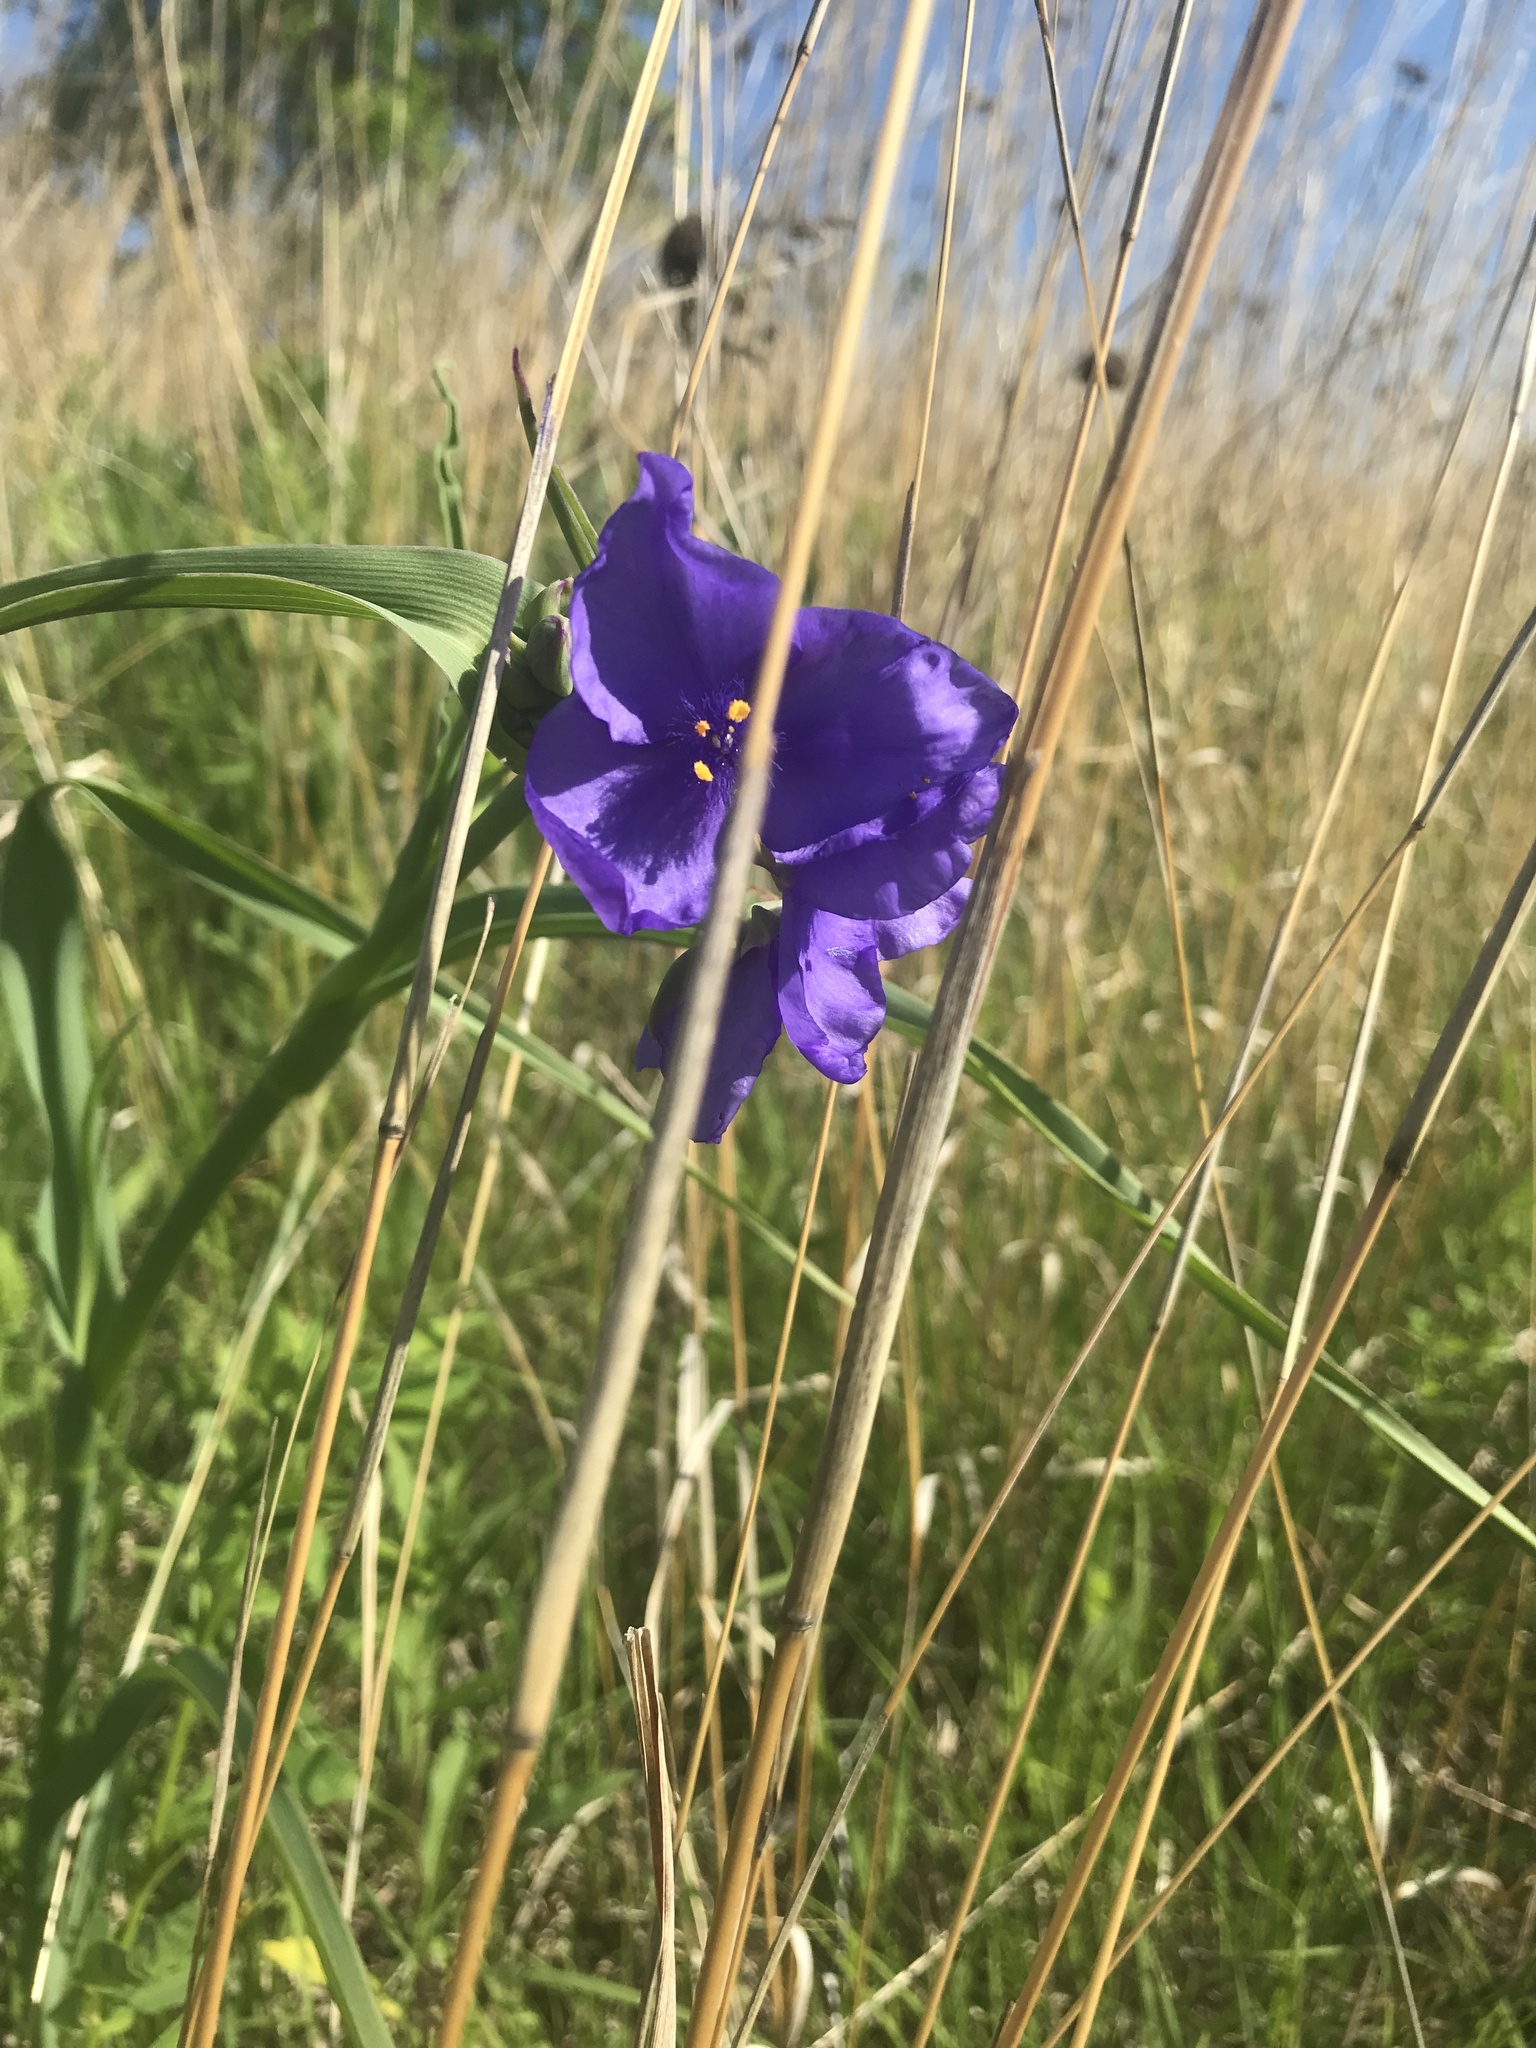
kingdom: Plantae
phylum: Tracheophyta
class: Liliopsida
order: Commelinales
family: Commelinaceae
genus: Tradescantia
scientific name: Tradescantia ohiensis
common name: Ohio spiderwort
